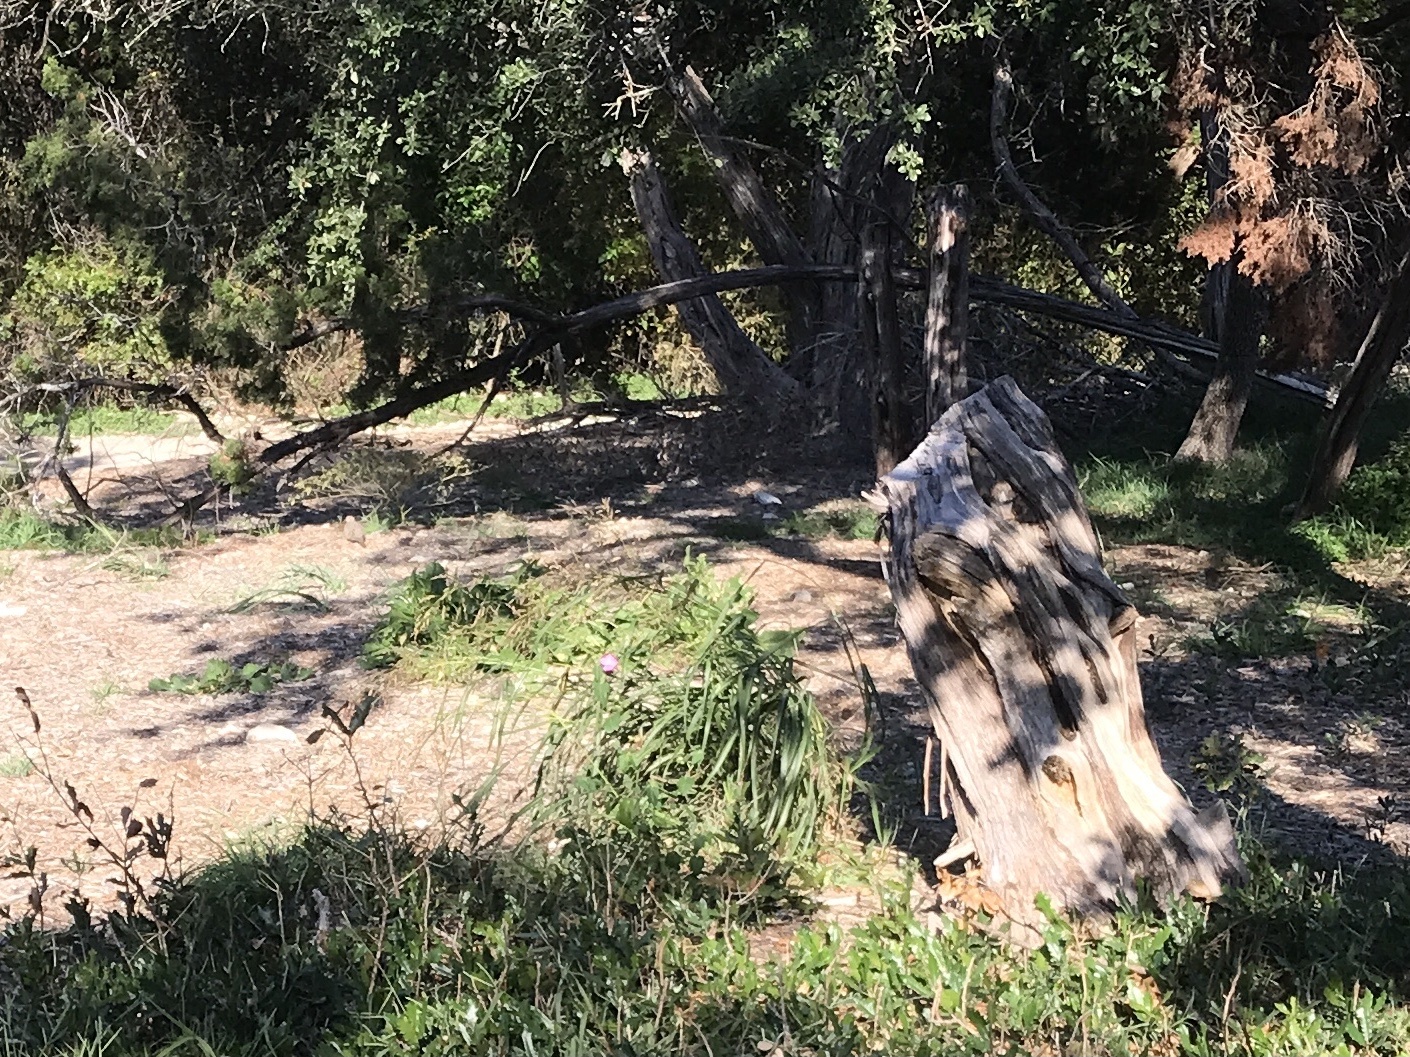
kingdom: Plantae
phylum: Tracheophyta
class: Magnoliopsida
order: Malvales
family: Malvaceae
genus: Pavonia
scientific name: Pavonia lasiopetala
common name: Texas swamp-mallow
